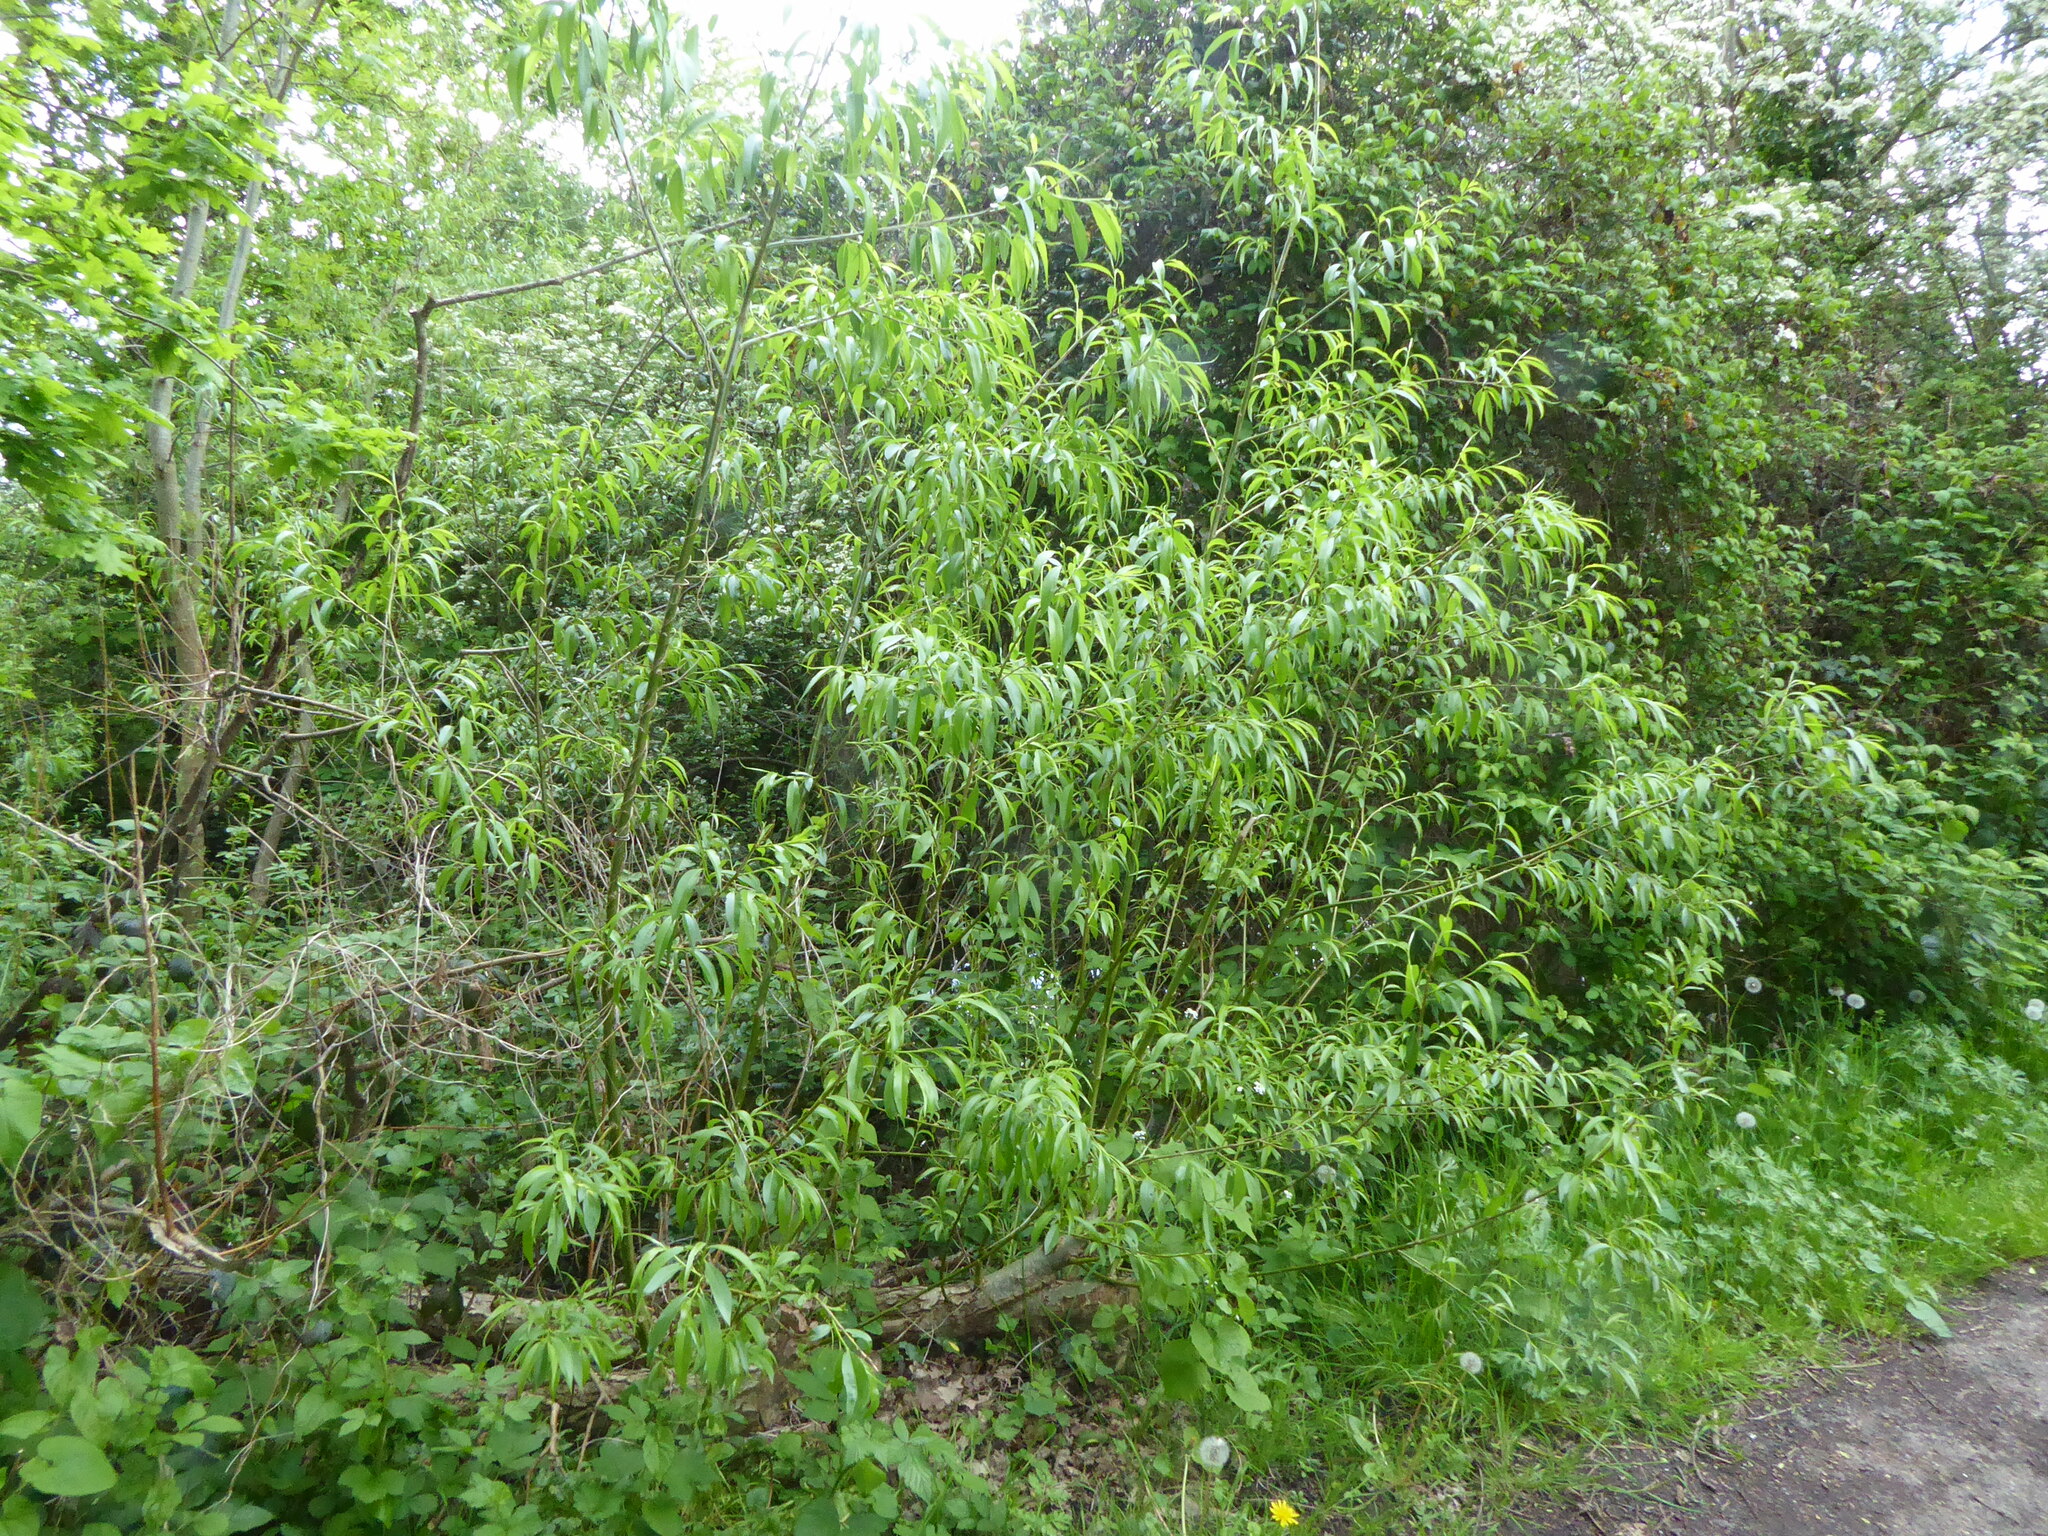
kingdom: Plantae
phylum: Tracheophyta
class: Magnoliopsida
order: Malpighiales
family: Salicaceae
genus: Salix
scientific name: Salix fragilis
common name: Crack willow
